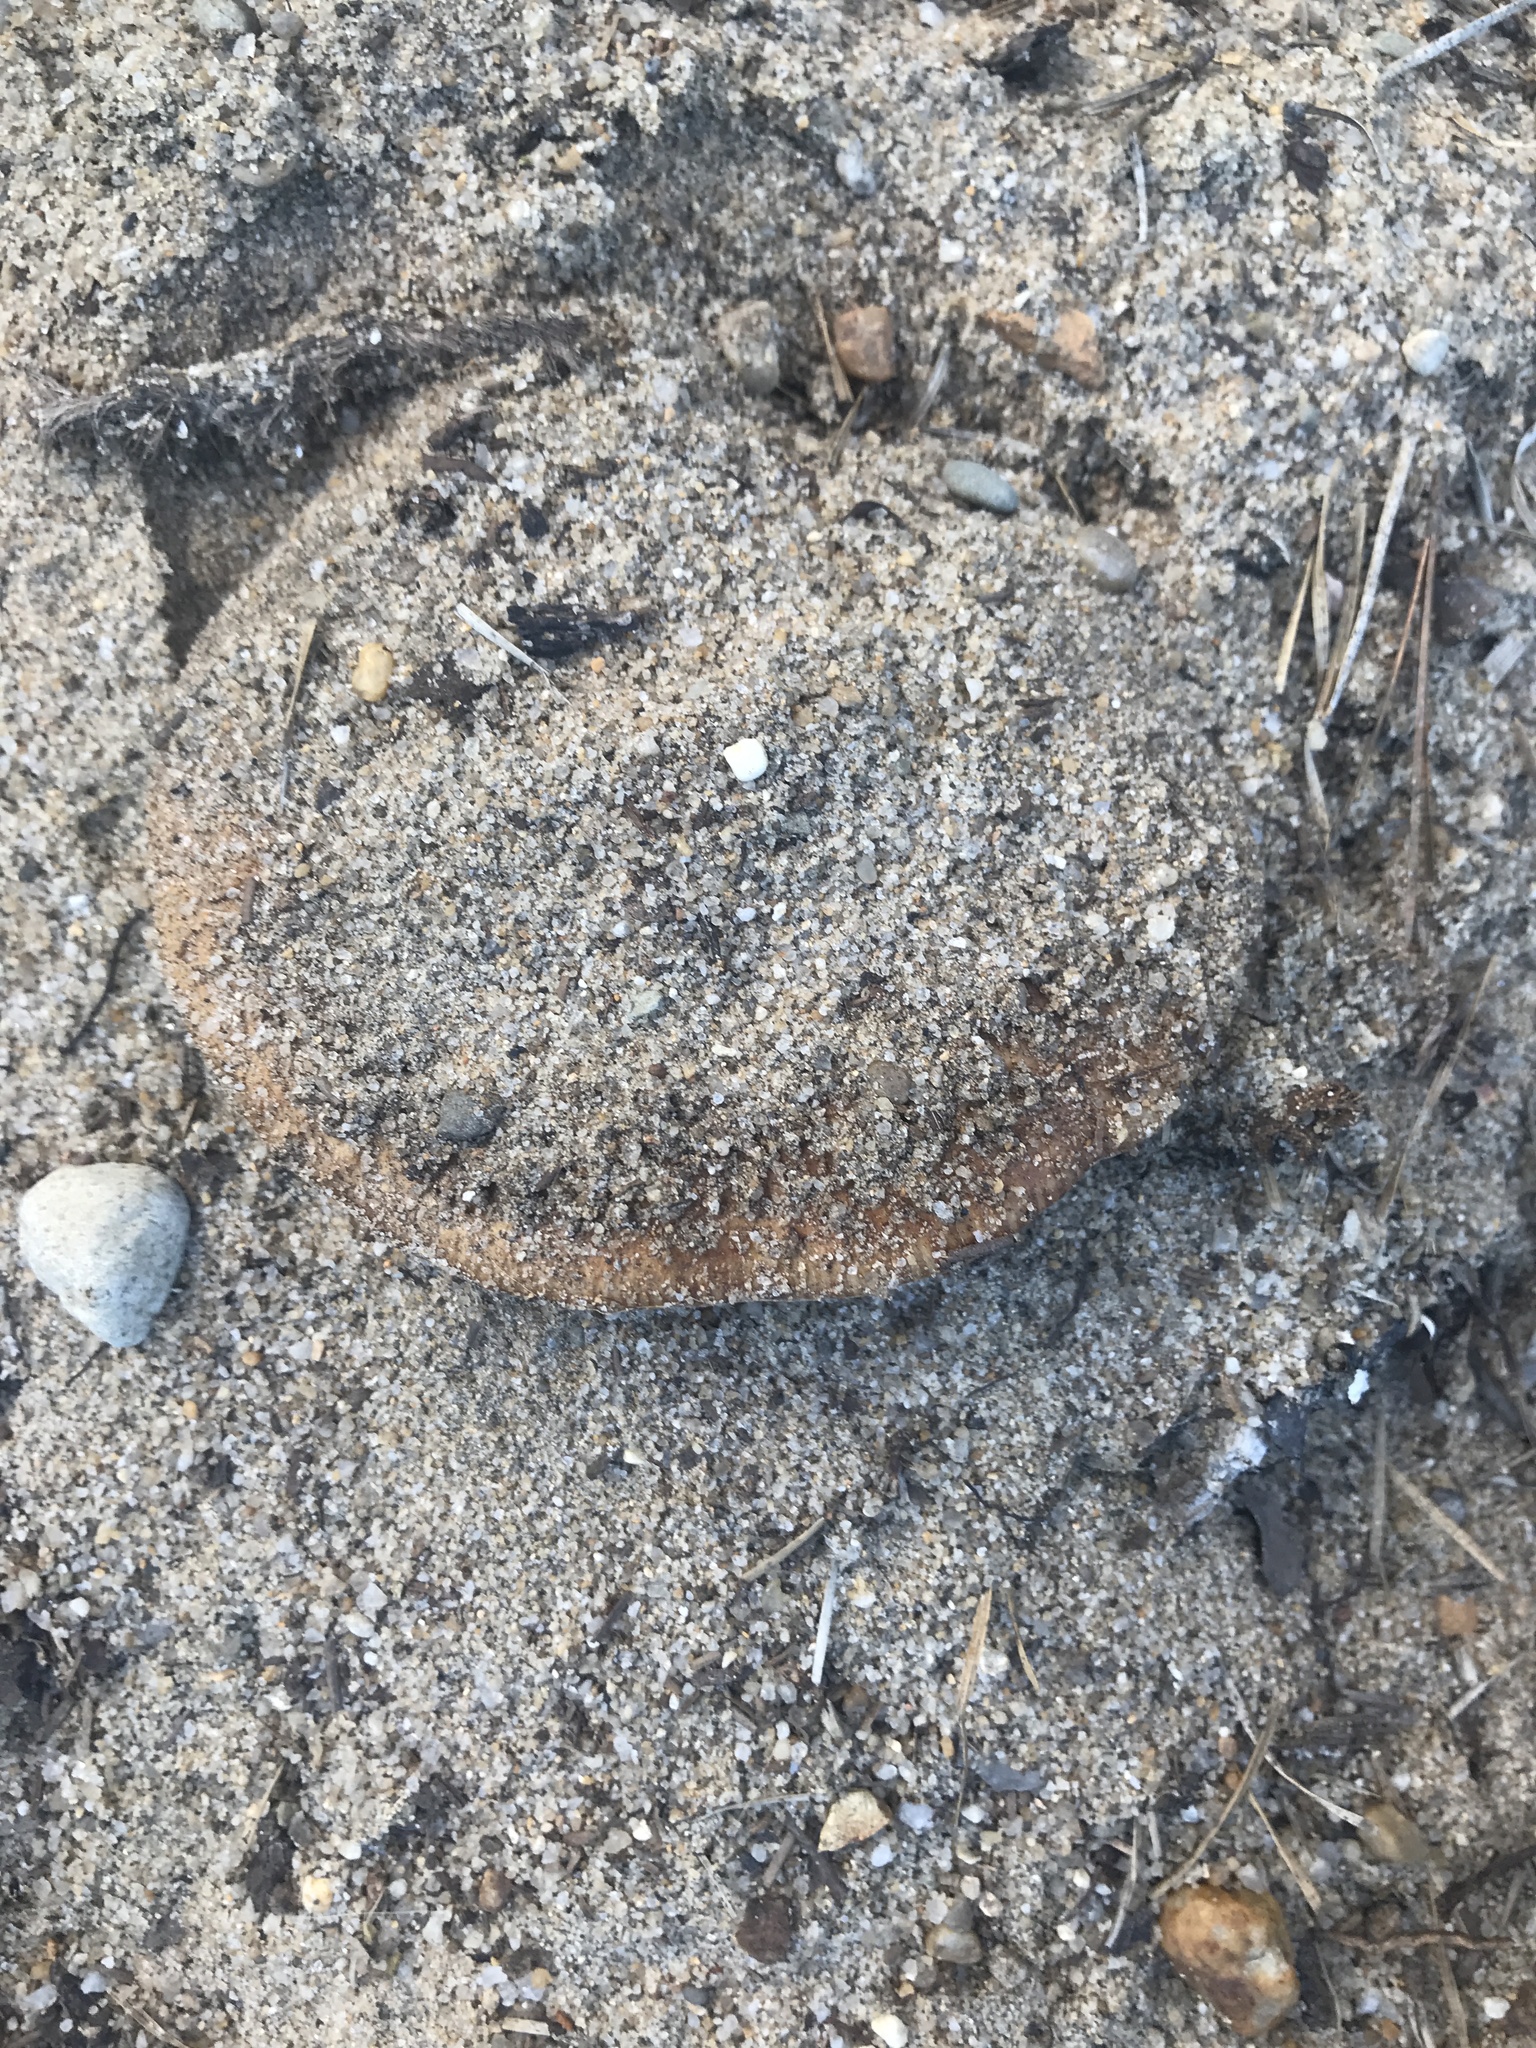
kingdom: Fungi
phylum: Basidiomycota
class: Agaricomycetes
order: Russulales
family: Russulaceae
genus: Russula
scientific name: Russula ventricosipes
